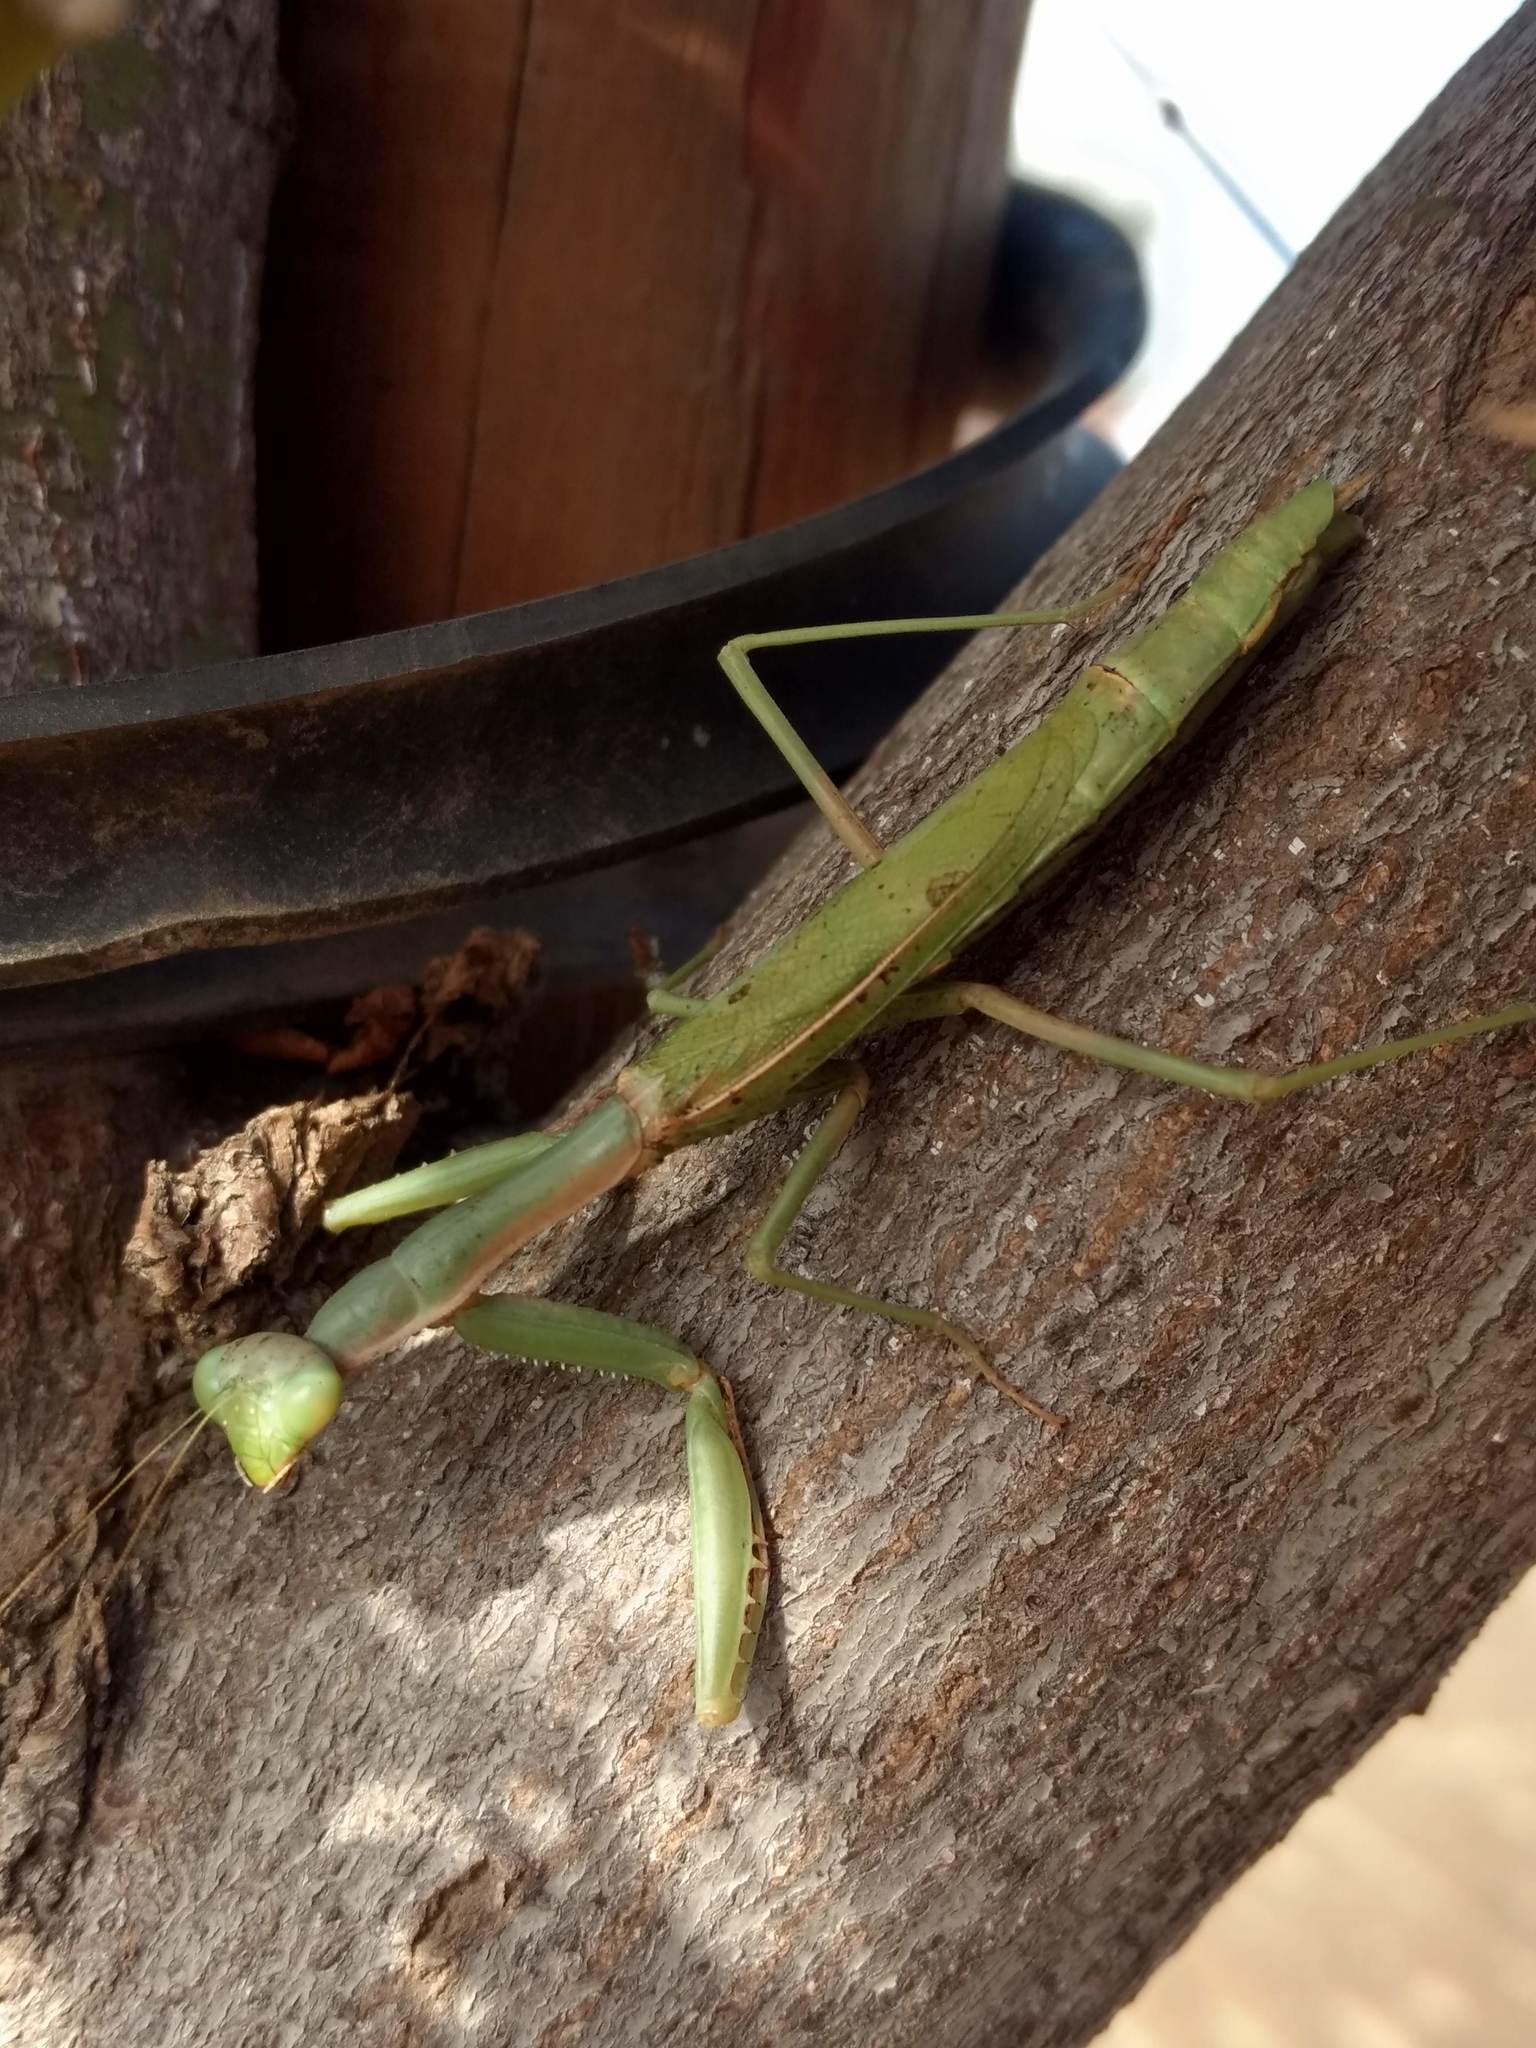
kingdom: Animalia
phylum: Arthropoda
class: Insecta
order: Mantodea
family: Eremiaphilidae
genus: Iris
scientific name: Iris oratoria
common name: Mediterranean mantis
